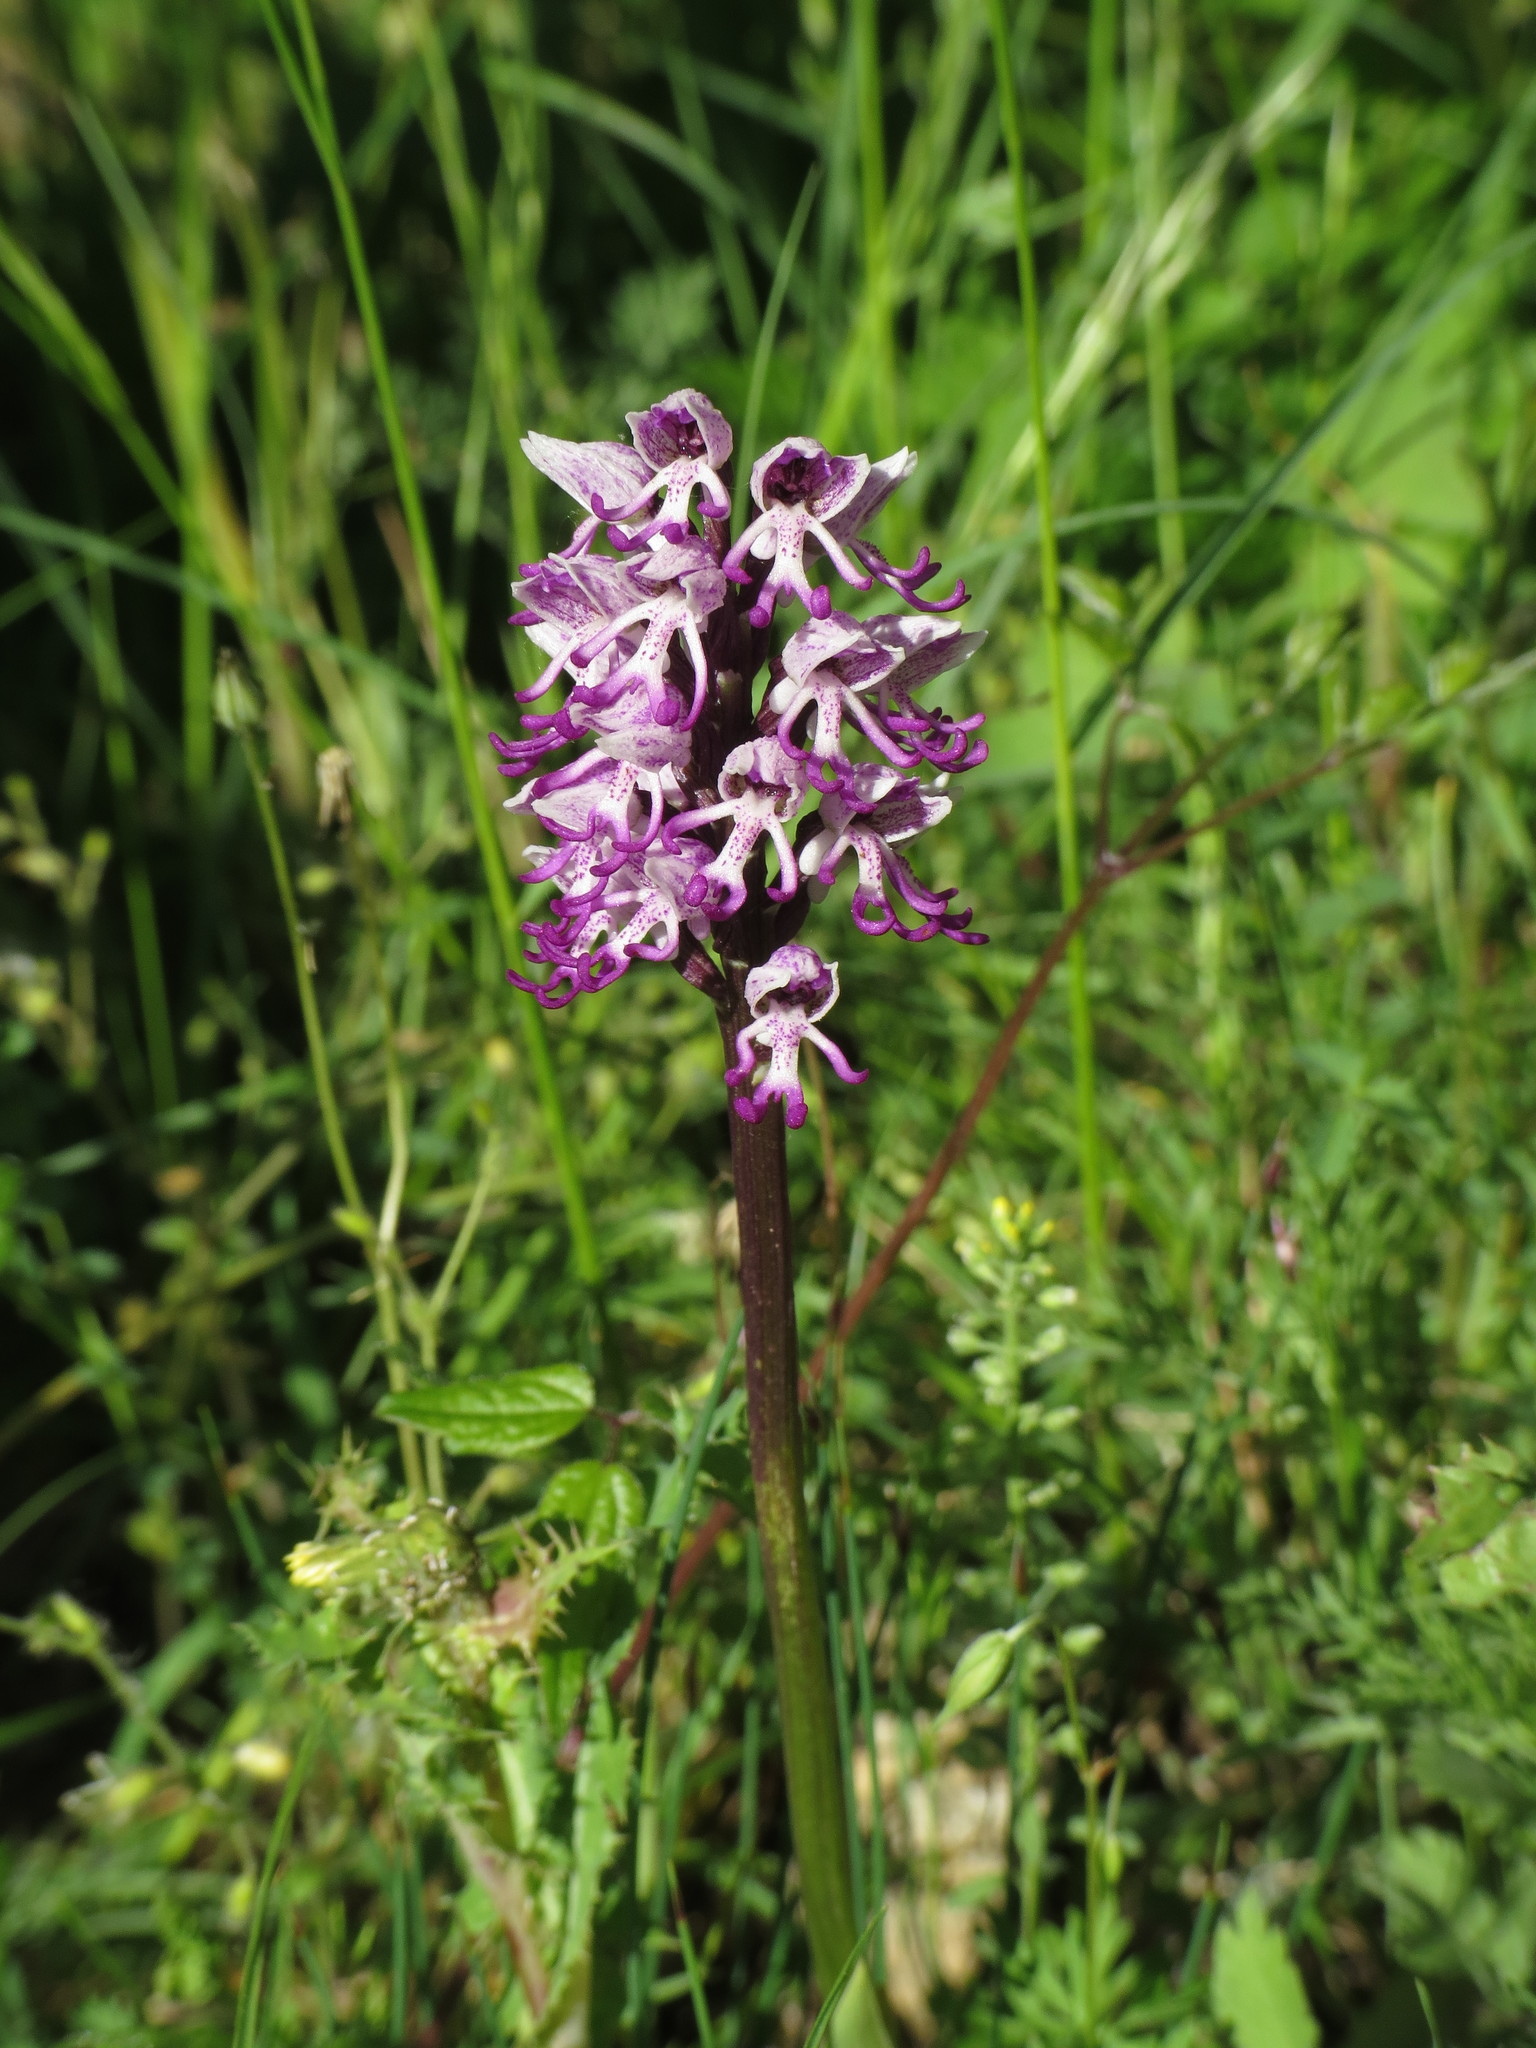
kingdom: Plantae
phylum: Tracheophyta
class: Liliopsida
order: Asparagales
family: Orchidaceae
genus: Orchis
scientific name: Orchis simia
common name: Monkey orchid
